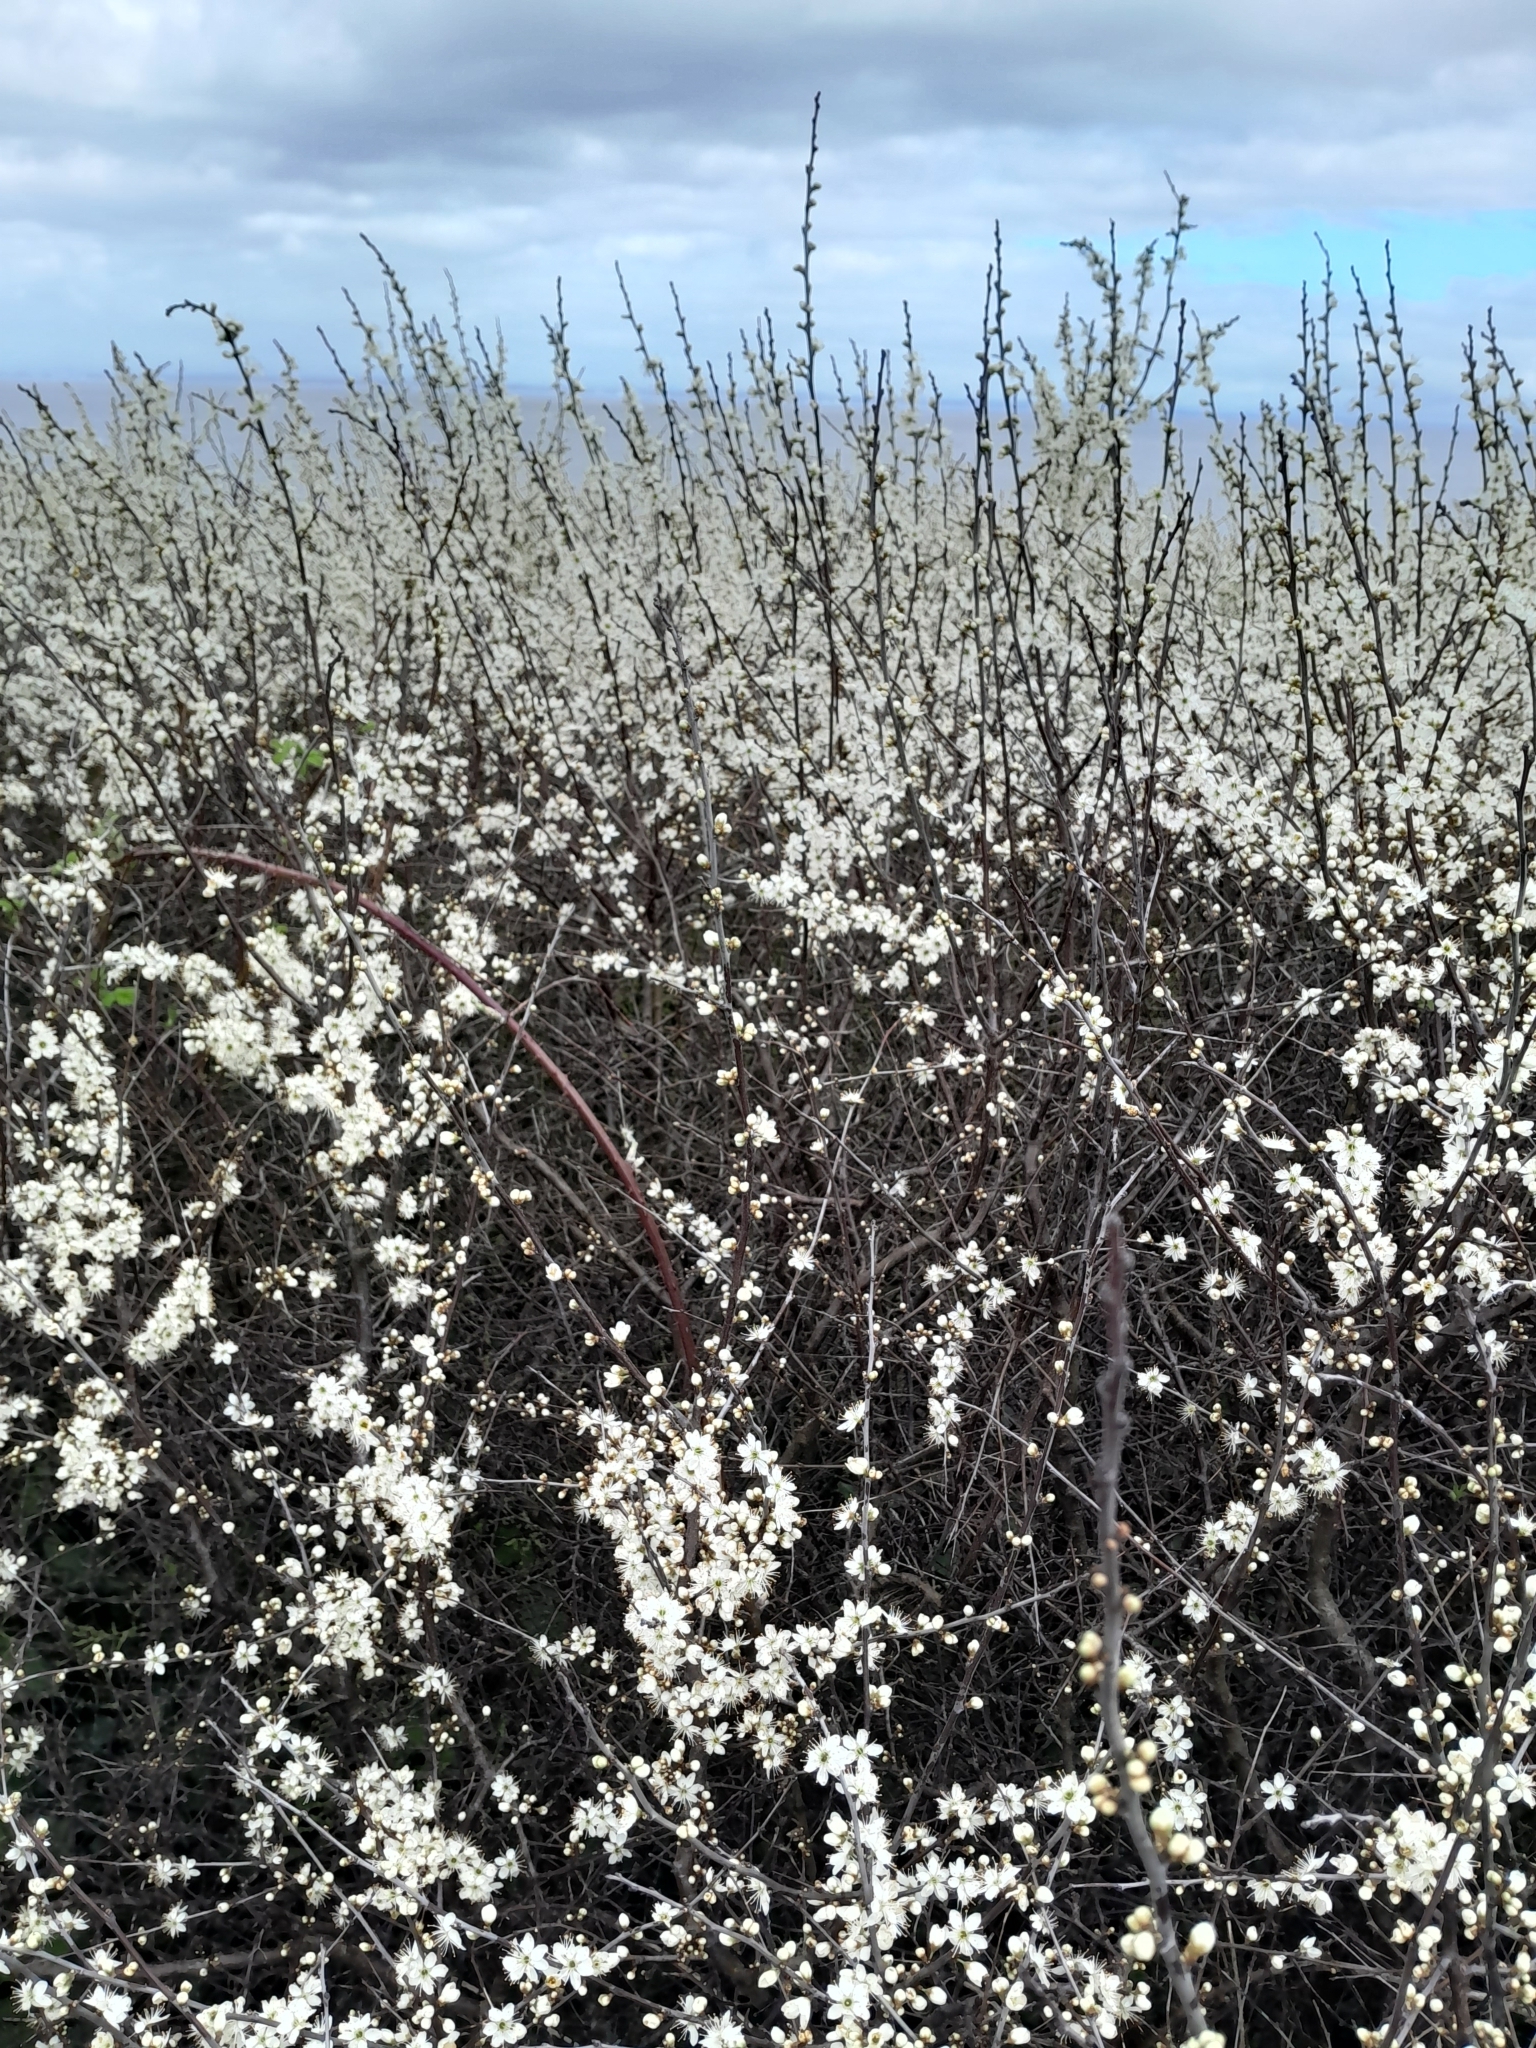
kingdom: Plantae
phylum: Tracheophyta
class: Magnoliopsida
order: Rosales
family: Rosaceae
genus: Prunus
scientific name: Prunus spinosa
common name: Blackthorn
